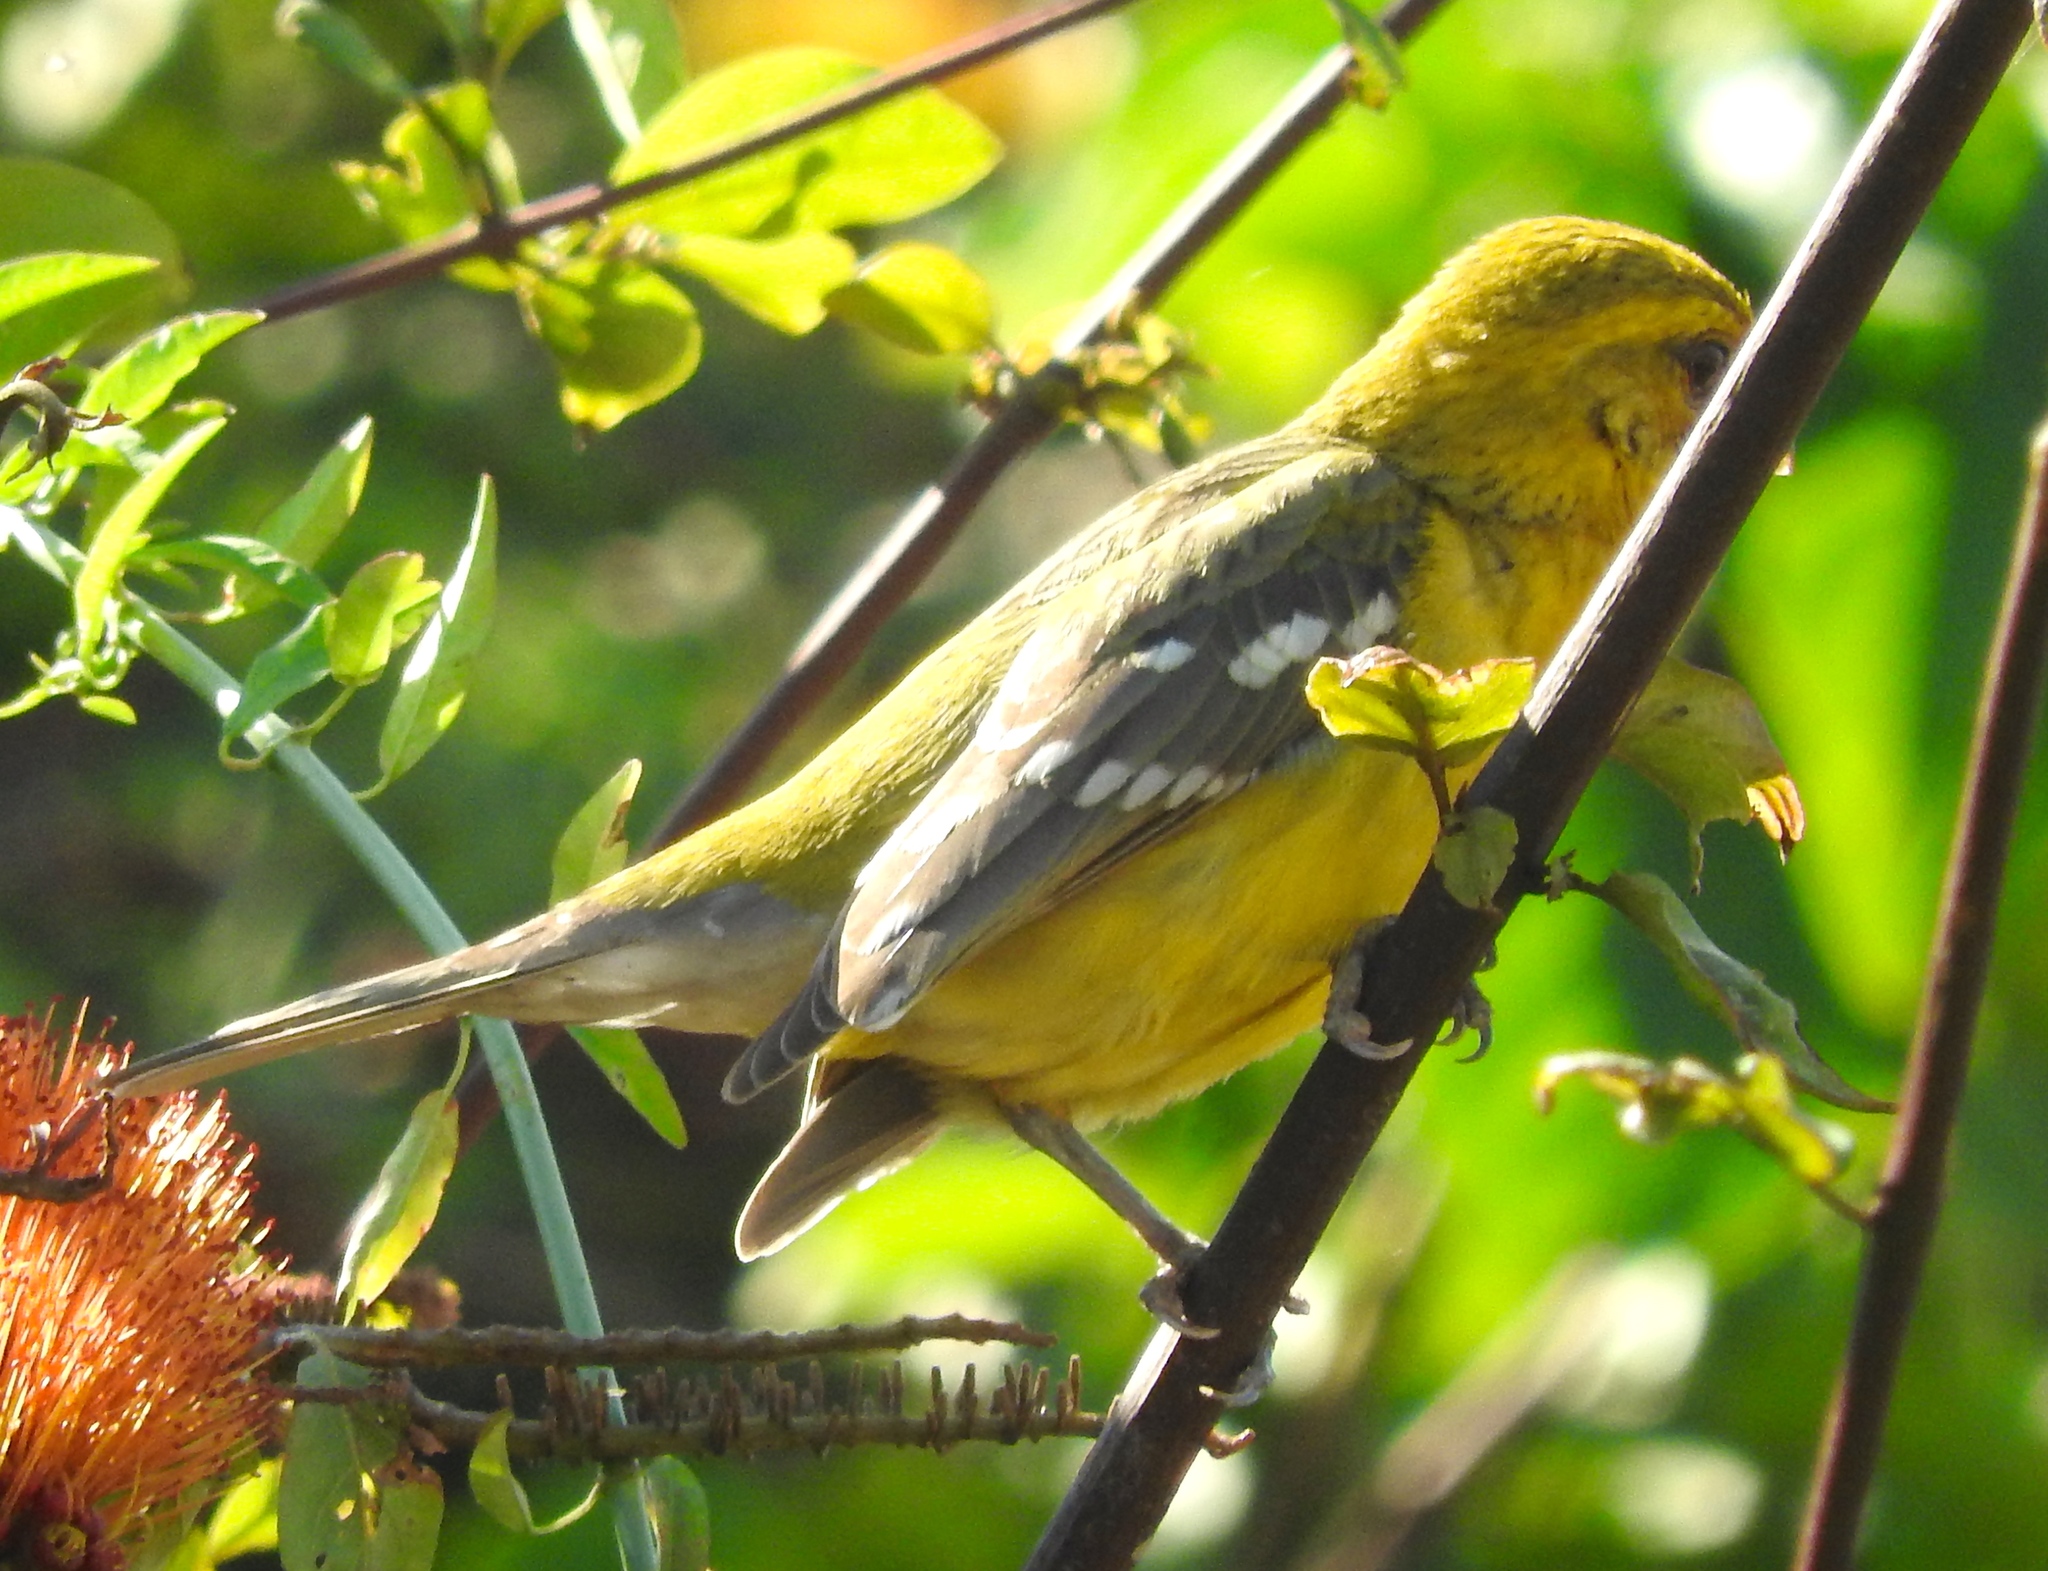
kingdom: Animalia
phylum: Chordata
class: Aves
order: Passeriformes
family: Cardinalidae
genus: Pheucticus
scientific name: Pheucticus chrysopeplus
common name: Yellow grosbeak
